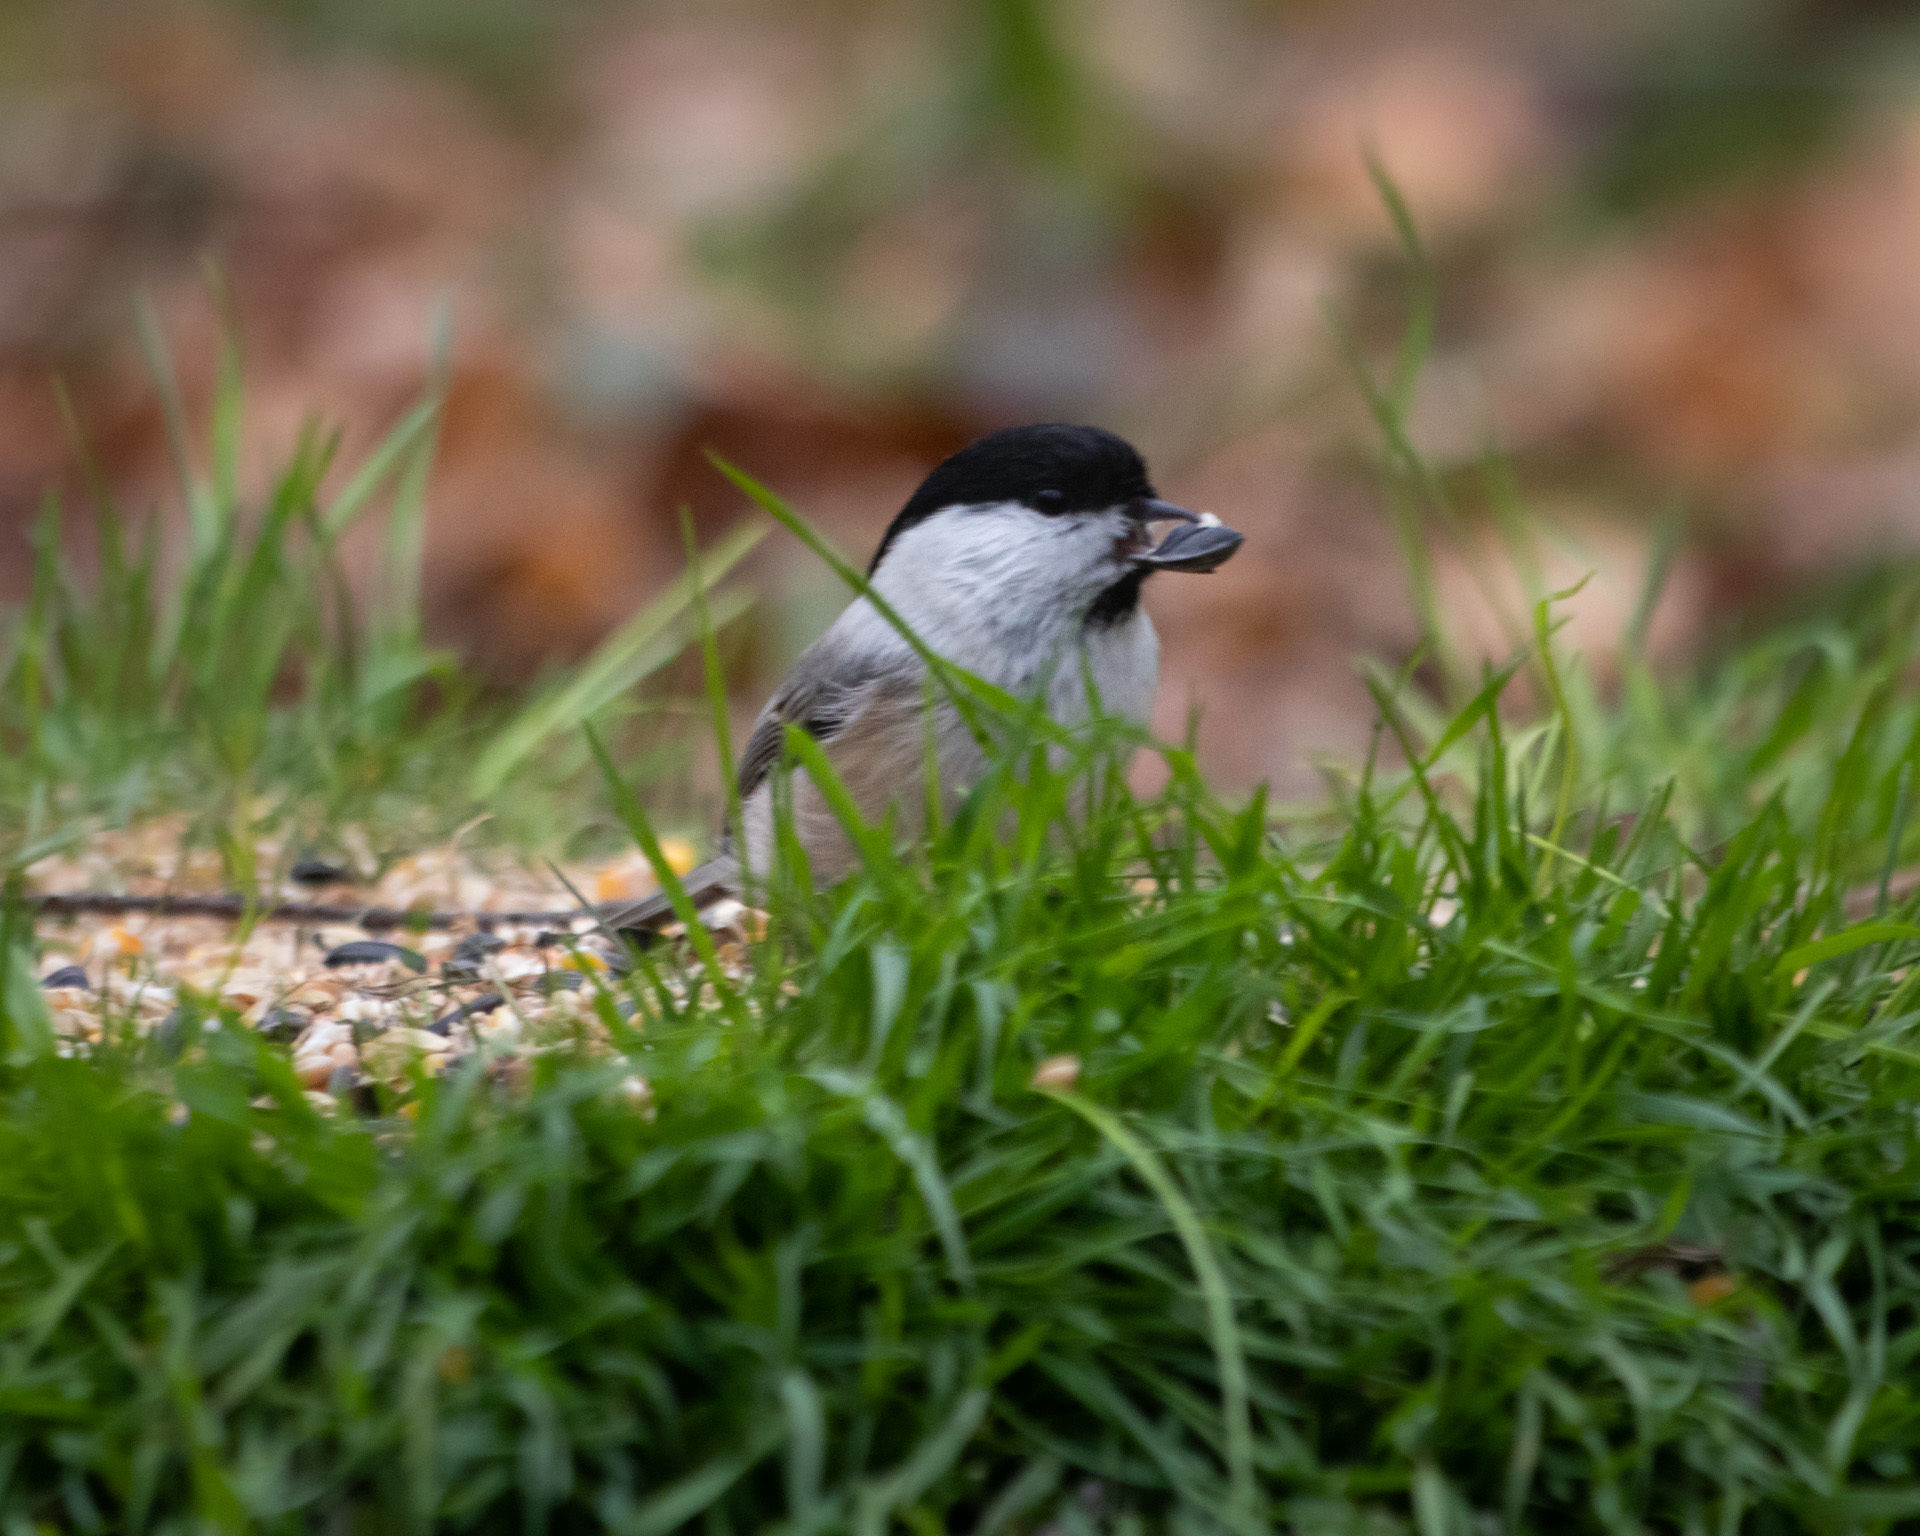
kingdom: Animalia
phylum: Chordata
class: Aves
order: Passeriformes
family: Paridae
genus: Poecile
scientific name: Poecile montanus
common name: Willow tit
